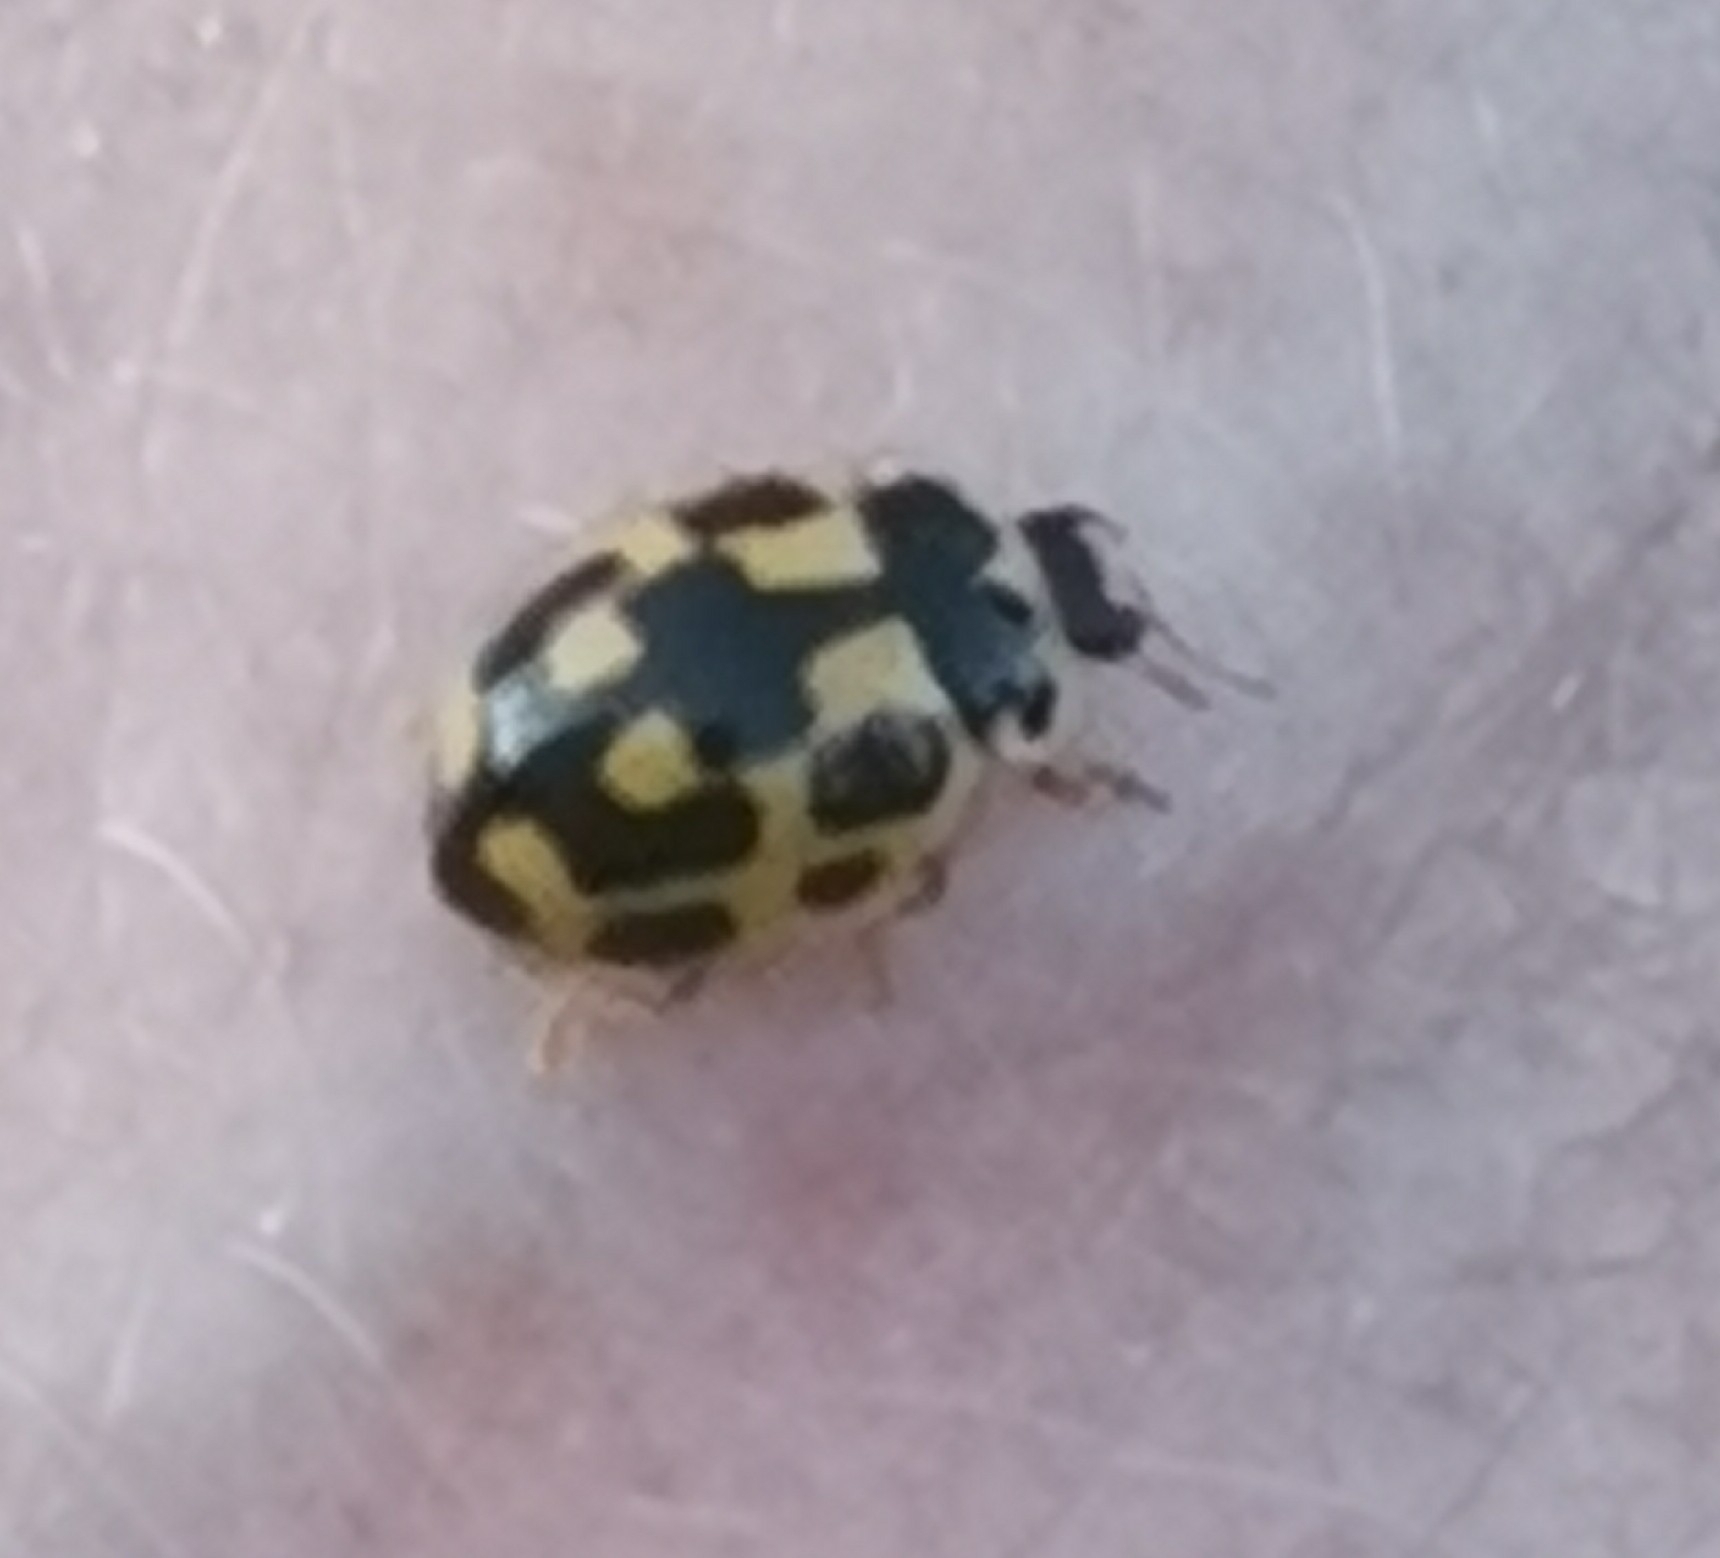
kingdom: Animalia
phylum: Arthropoda
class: Insecta
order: Coleoptera
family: Coccinellidae
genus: Propylaea
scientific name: Propylaea quatuordecimpunctata
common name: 14-spotted ladybird beetle
